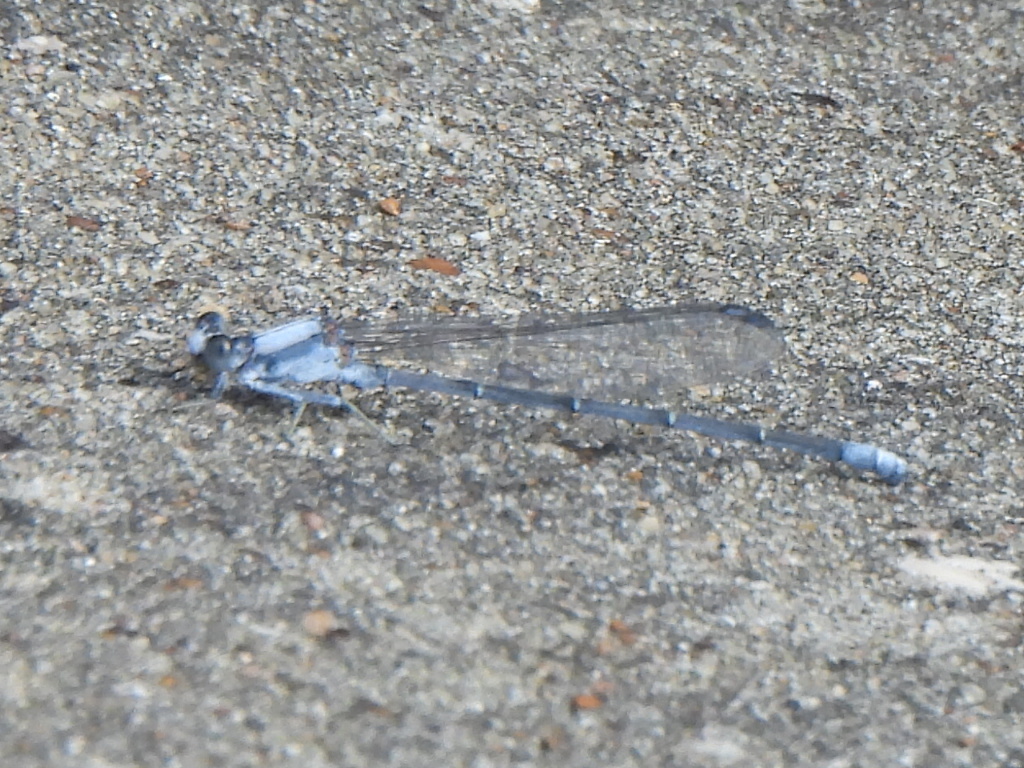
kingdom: Animalia
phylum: Arthropoda
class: Insecta
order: Odonata
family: Coenagrionidae
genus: Argia
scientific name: Argia moesta
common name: Powdered dancer
